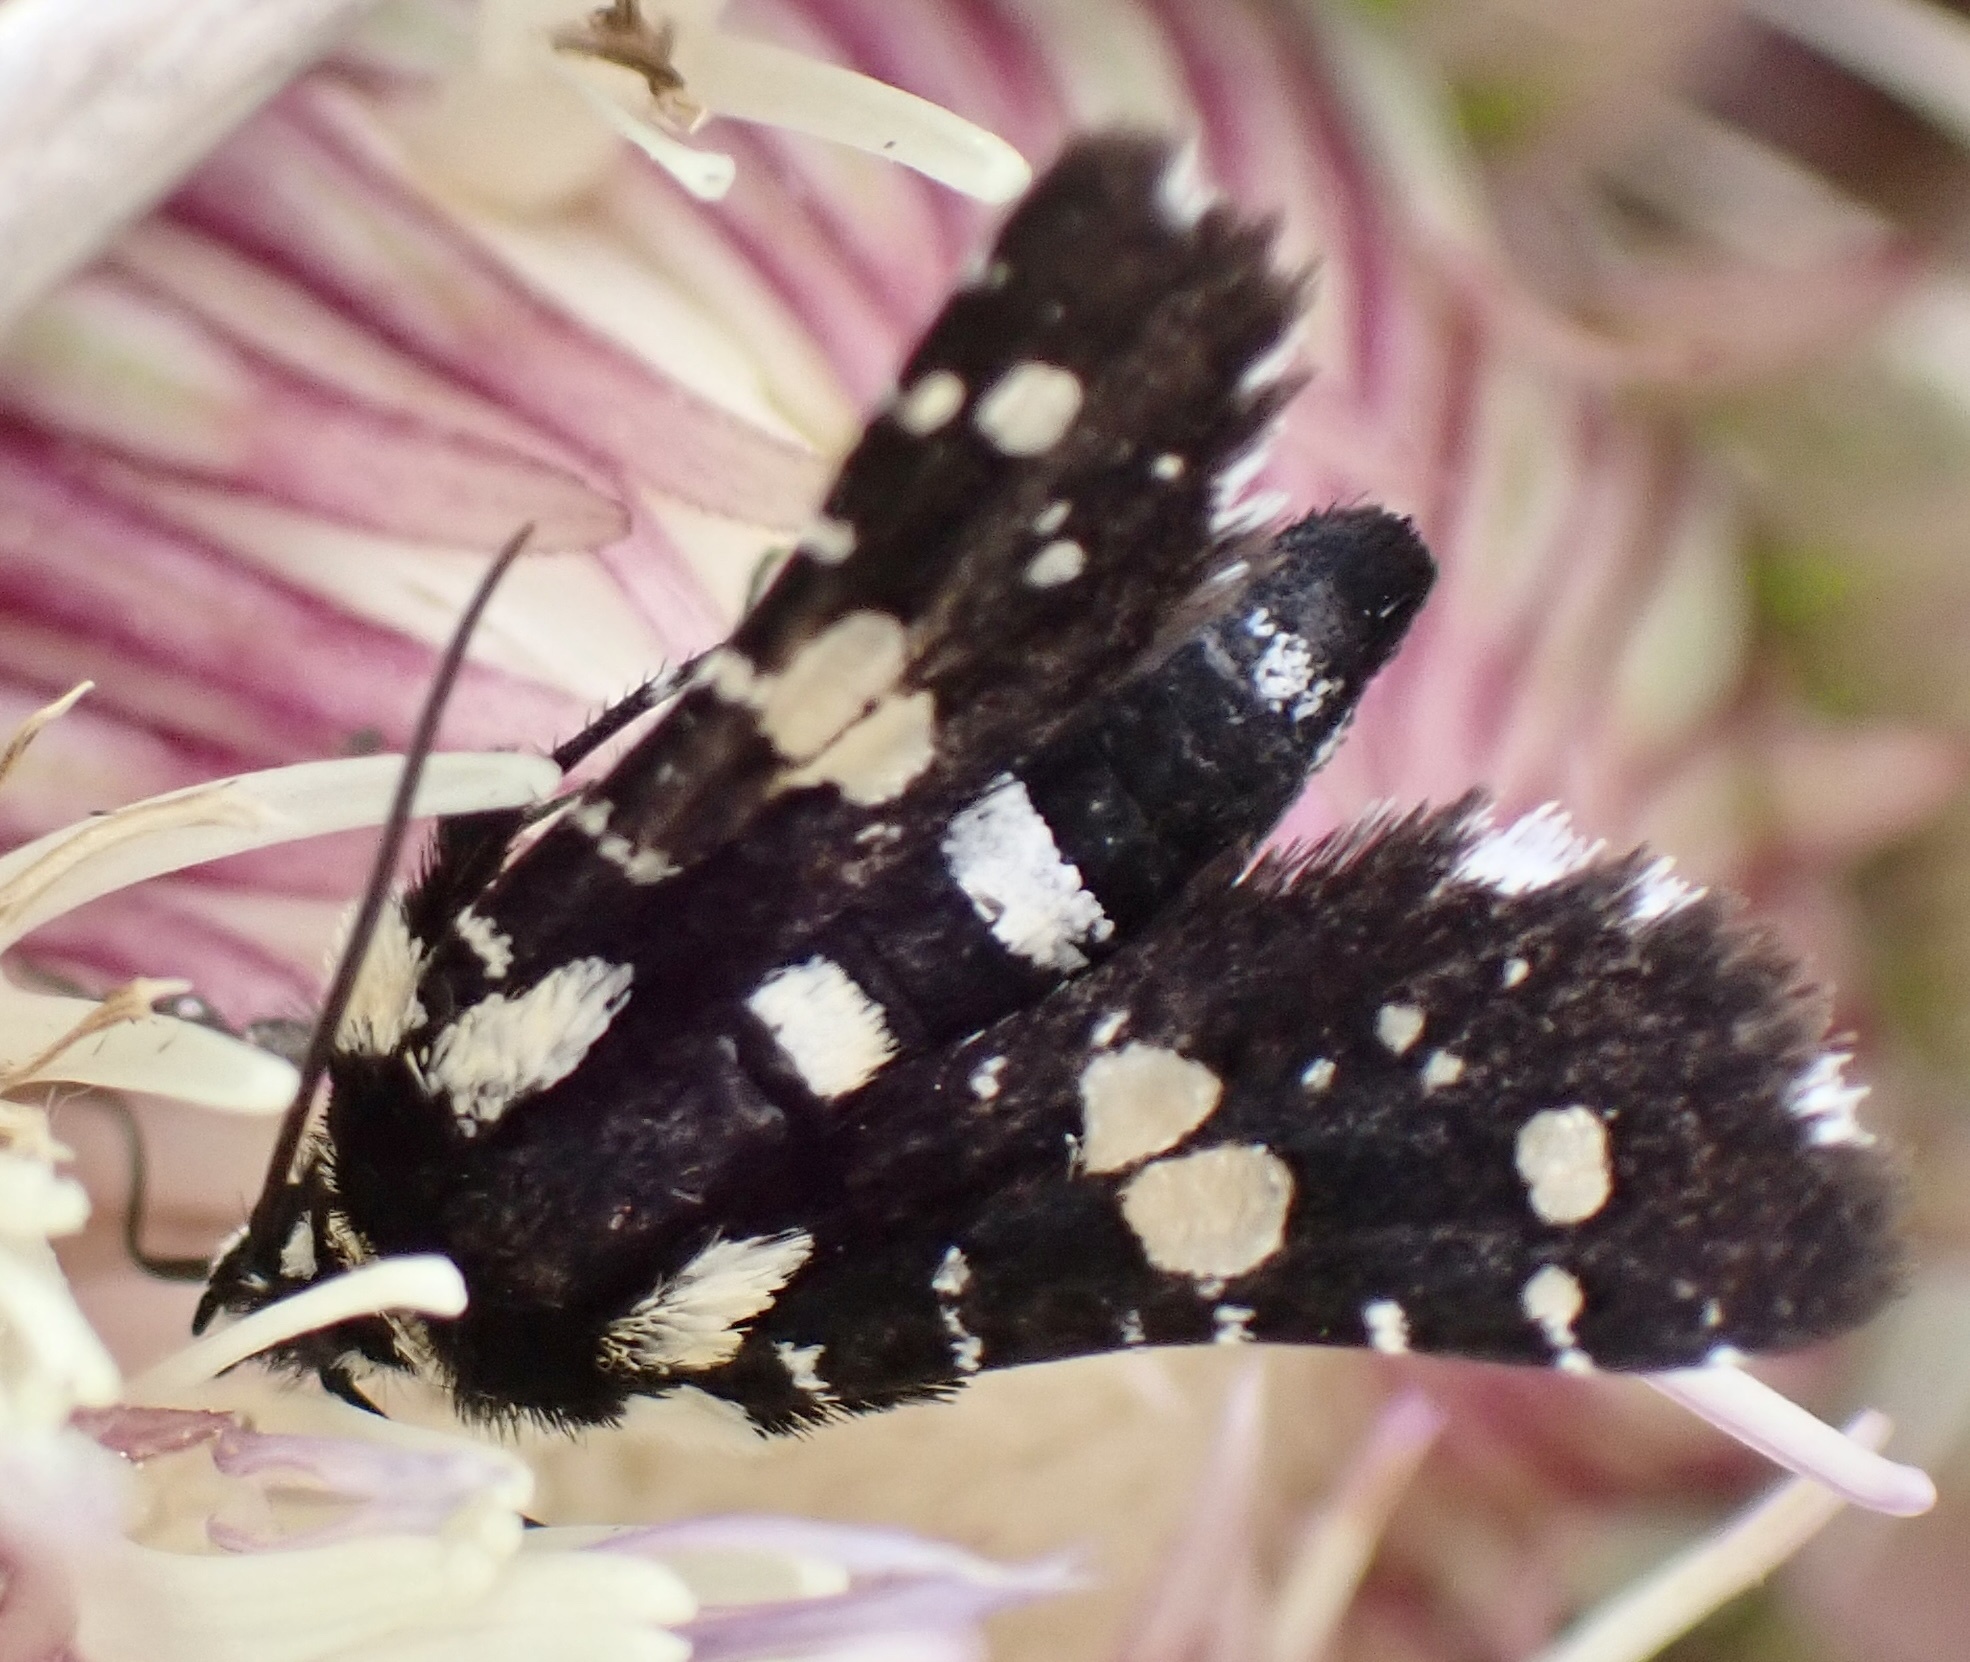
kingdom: Animalia
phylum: Arthropoda
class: Insecta
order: Lepidoptera
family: Thyrididae
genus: Pseudothyris
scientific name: Pseudothyris sepulchralis
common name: Mournful thyris moth
